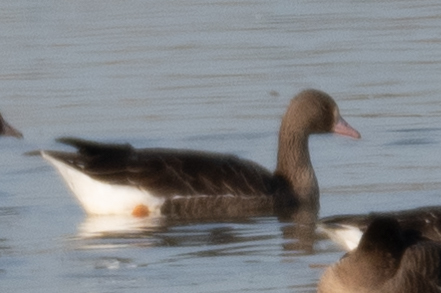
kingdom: Animalia
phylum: Chordata
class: Aves
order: Anseriformes
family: Anatidae
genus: Anser
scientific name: Anser albifrons
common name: Greater white-fronted goose
